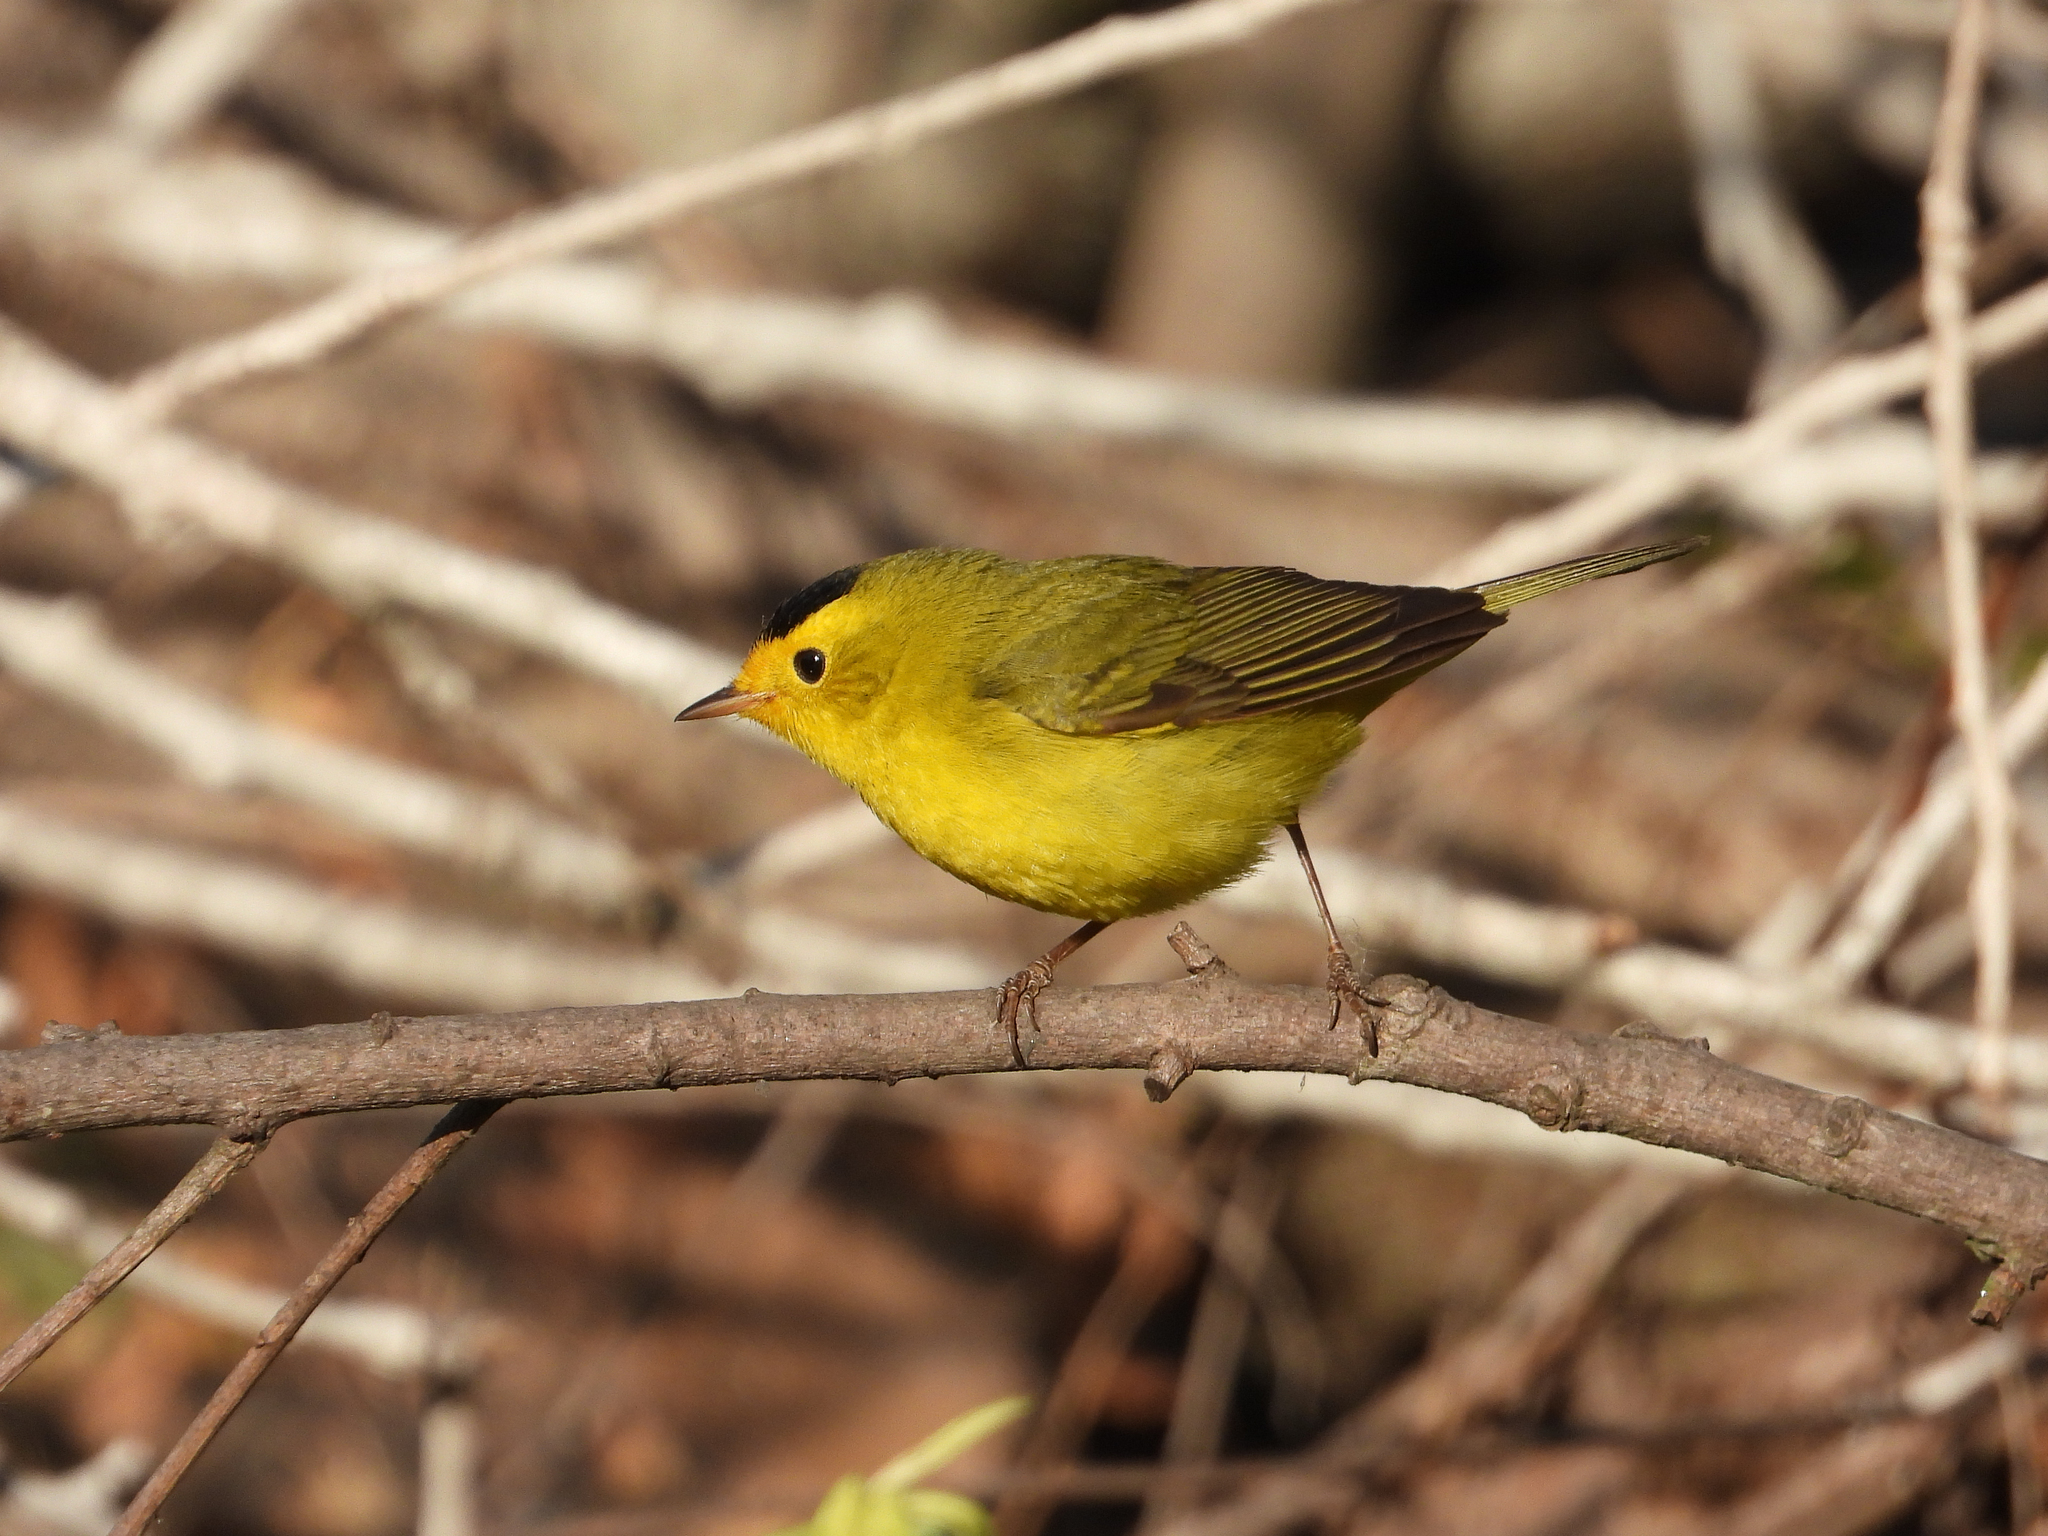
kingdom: Animalia
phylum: Chordata
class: Aves
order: Passeriformes
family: Parulidae
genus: Cardellina
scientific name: Cardellina pusilla
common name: Wilson's warbler
